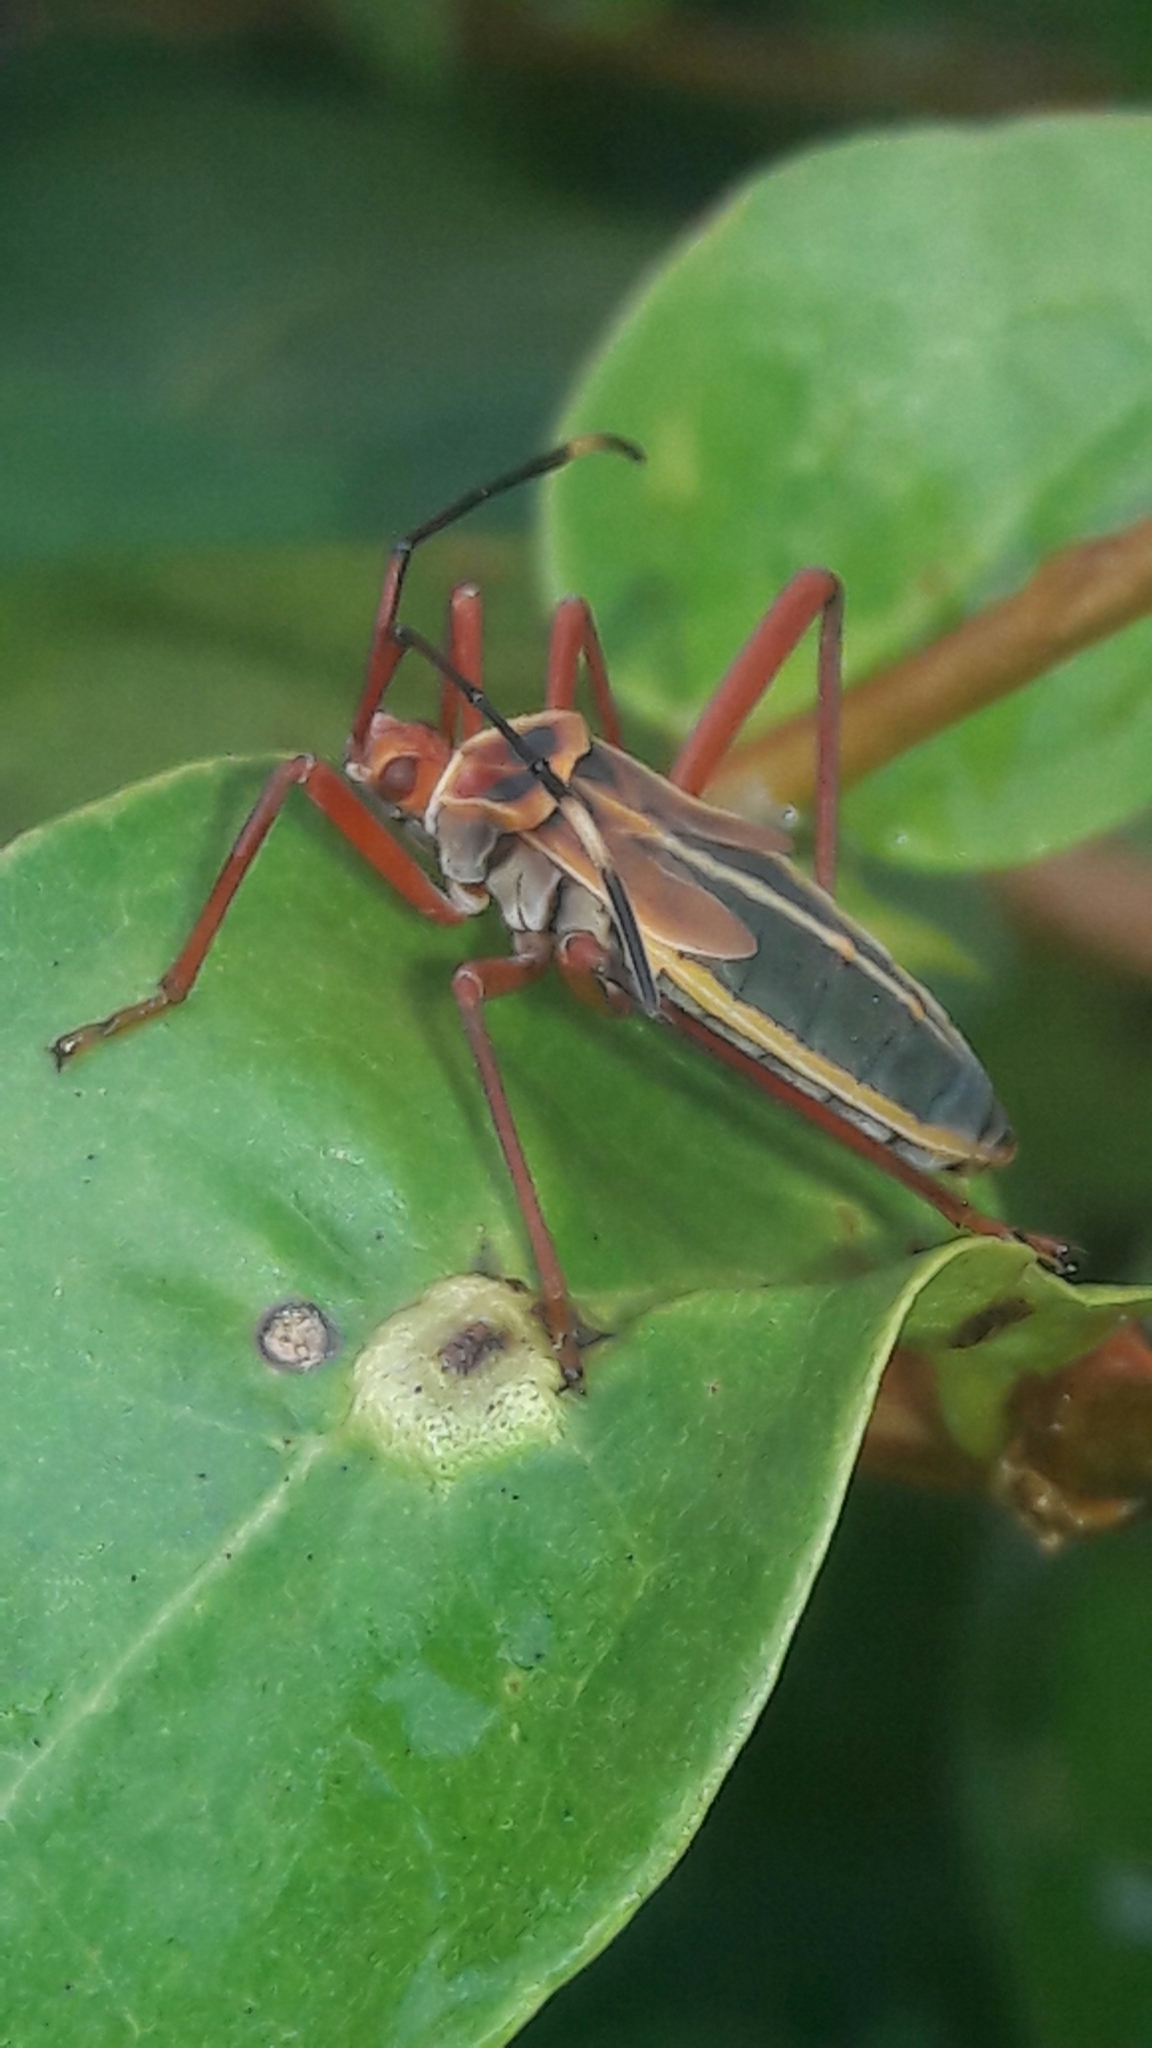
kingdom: Animalia
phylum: Arthropoda
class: Insecta
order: Hemiptera
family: Coreidae
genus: Lucullia
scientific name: Lucullia flavovittata
